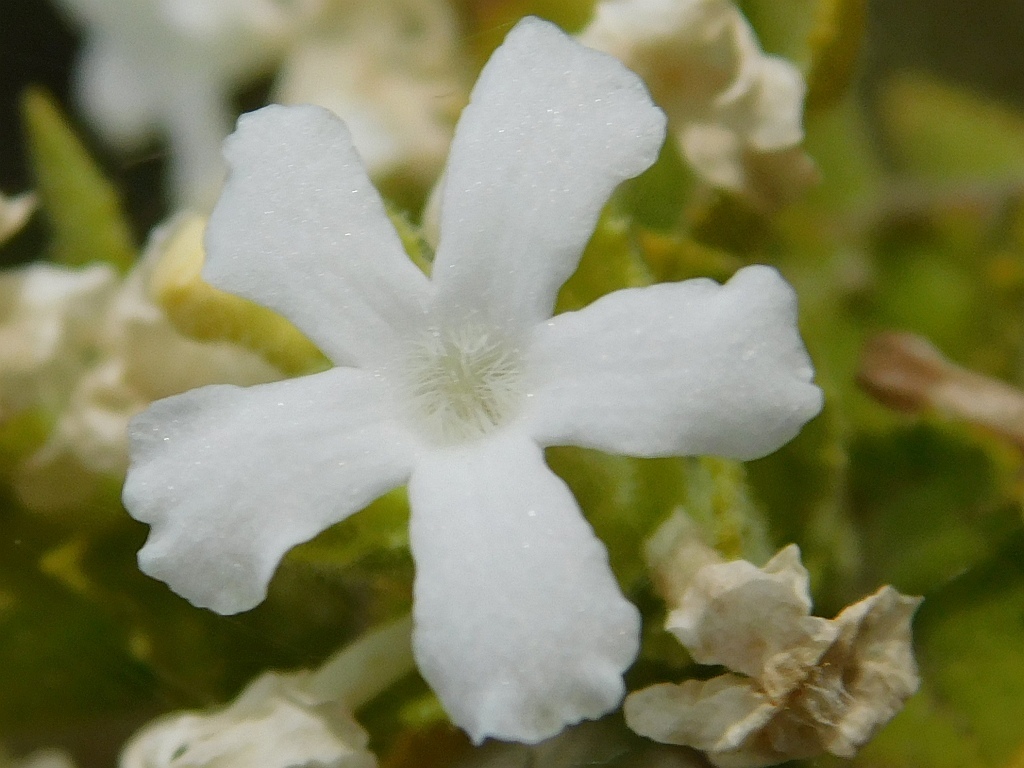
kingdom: Plantae
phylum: Tracheophyta
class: Magnoliopsida
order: Lamiales
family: Scrophulariaceae
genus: Oftia
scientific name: Oftia africana
